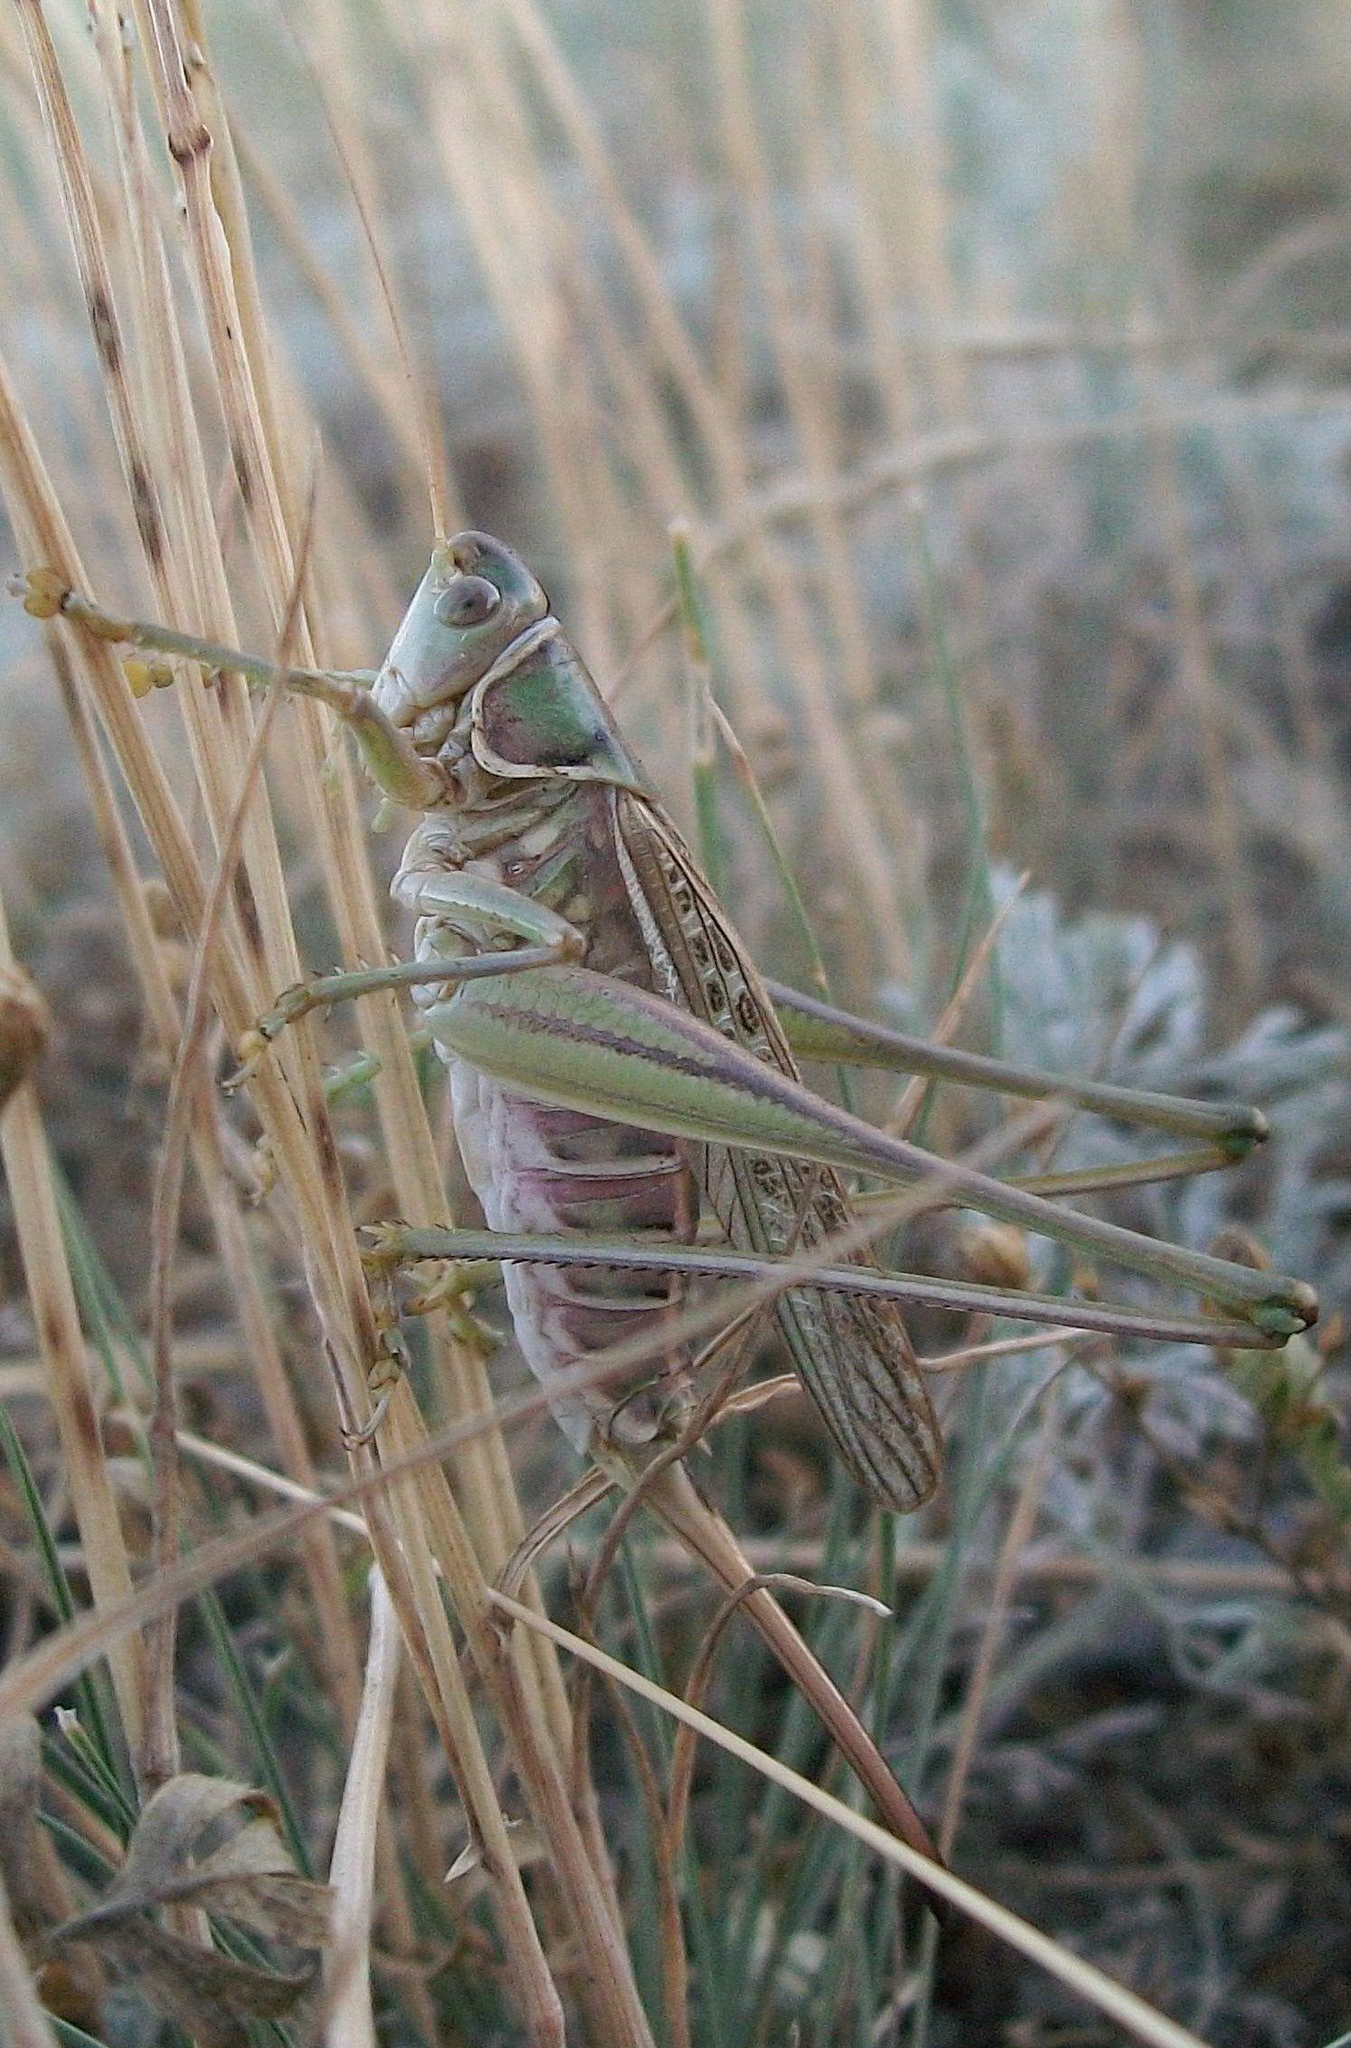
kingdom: Animalia
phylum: Arthropoda
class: Insecta
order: Orthoptera
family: Tettigoniidae
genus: Gampsocleis
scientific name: Gampsocleis glabra
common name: Heath bushcricket
